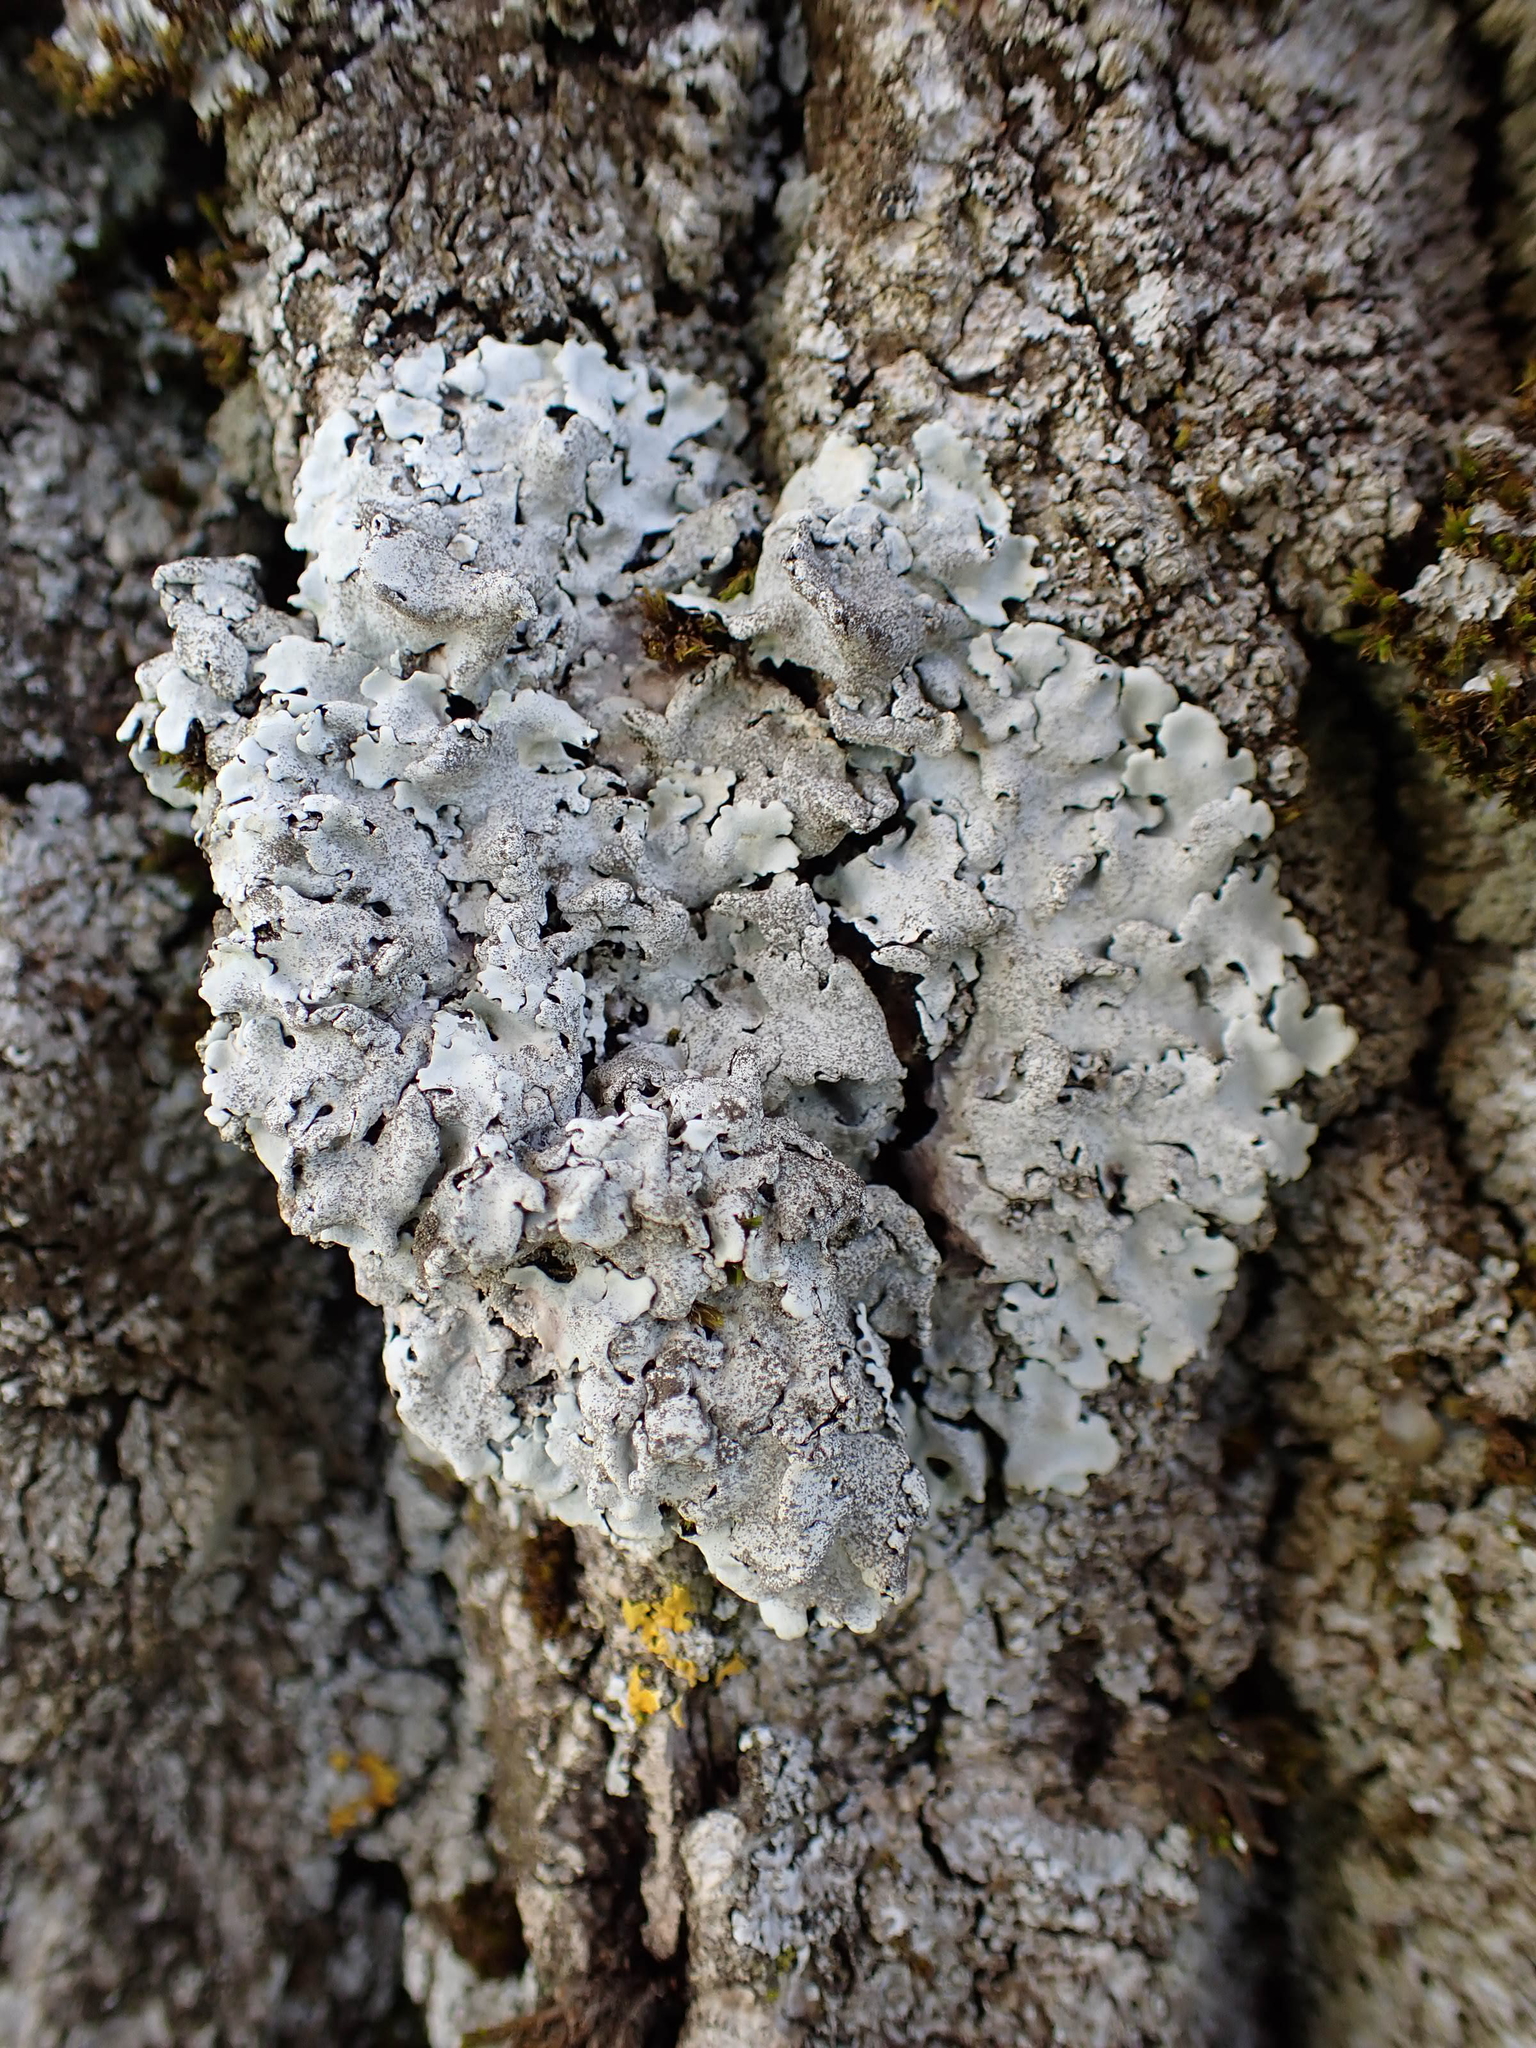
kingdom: Fungi
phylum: Ascomycota
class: Lecanoromycetes
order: Lecanorales
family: Parmeliaceae
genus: Parmelina
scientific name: Parmelina tiliacea
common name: Linden shield lichen
